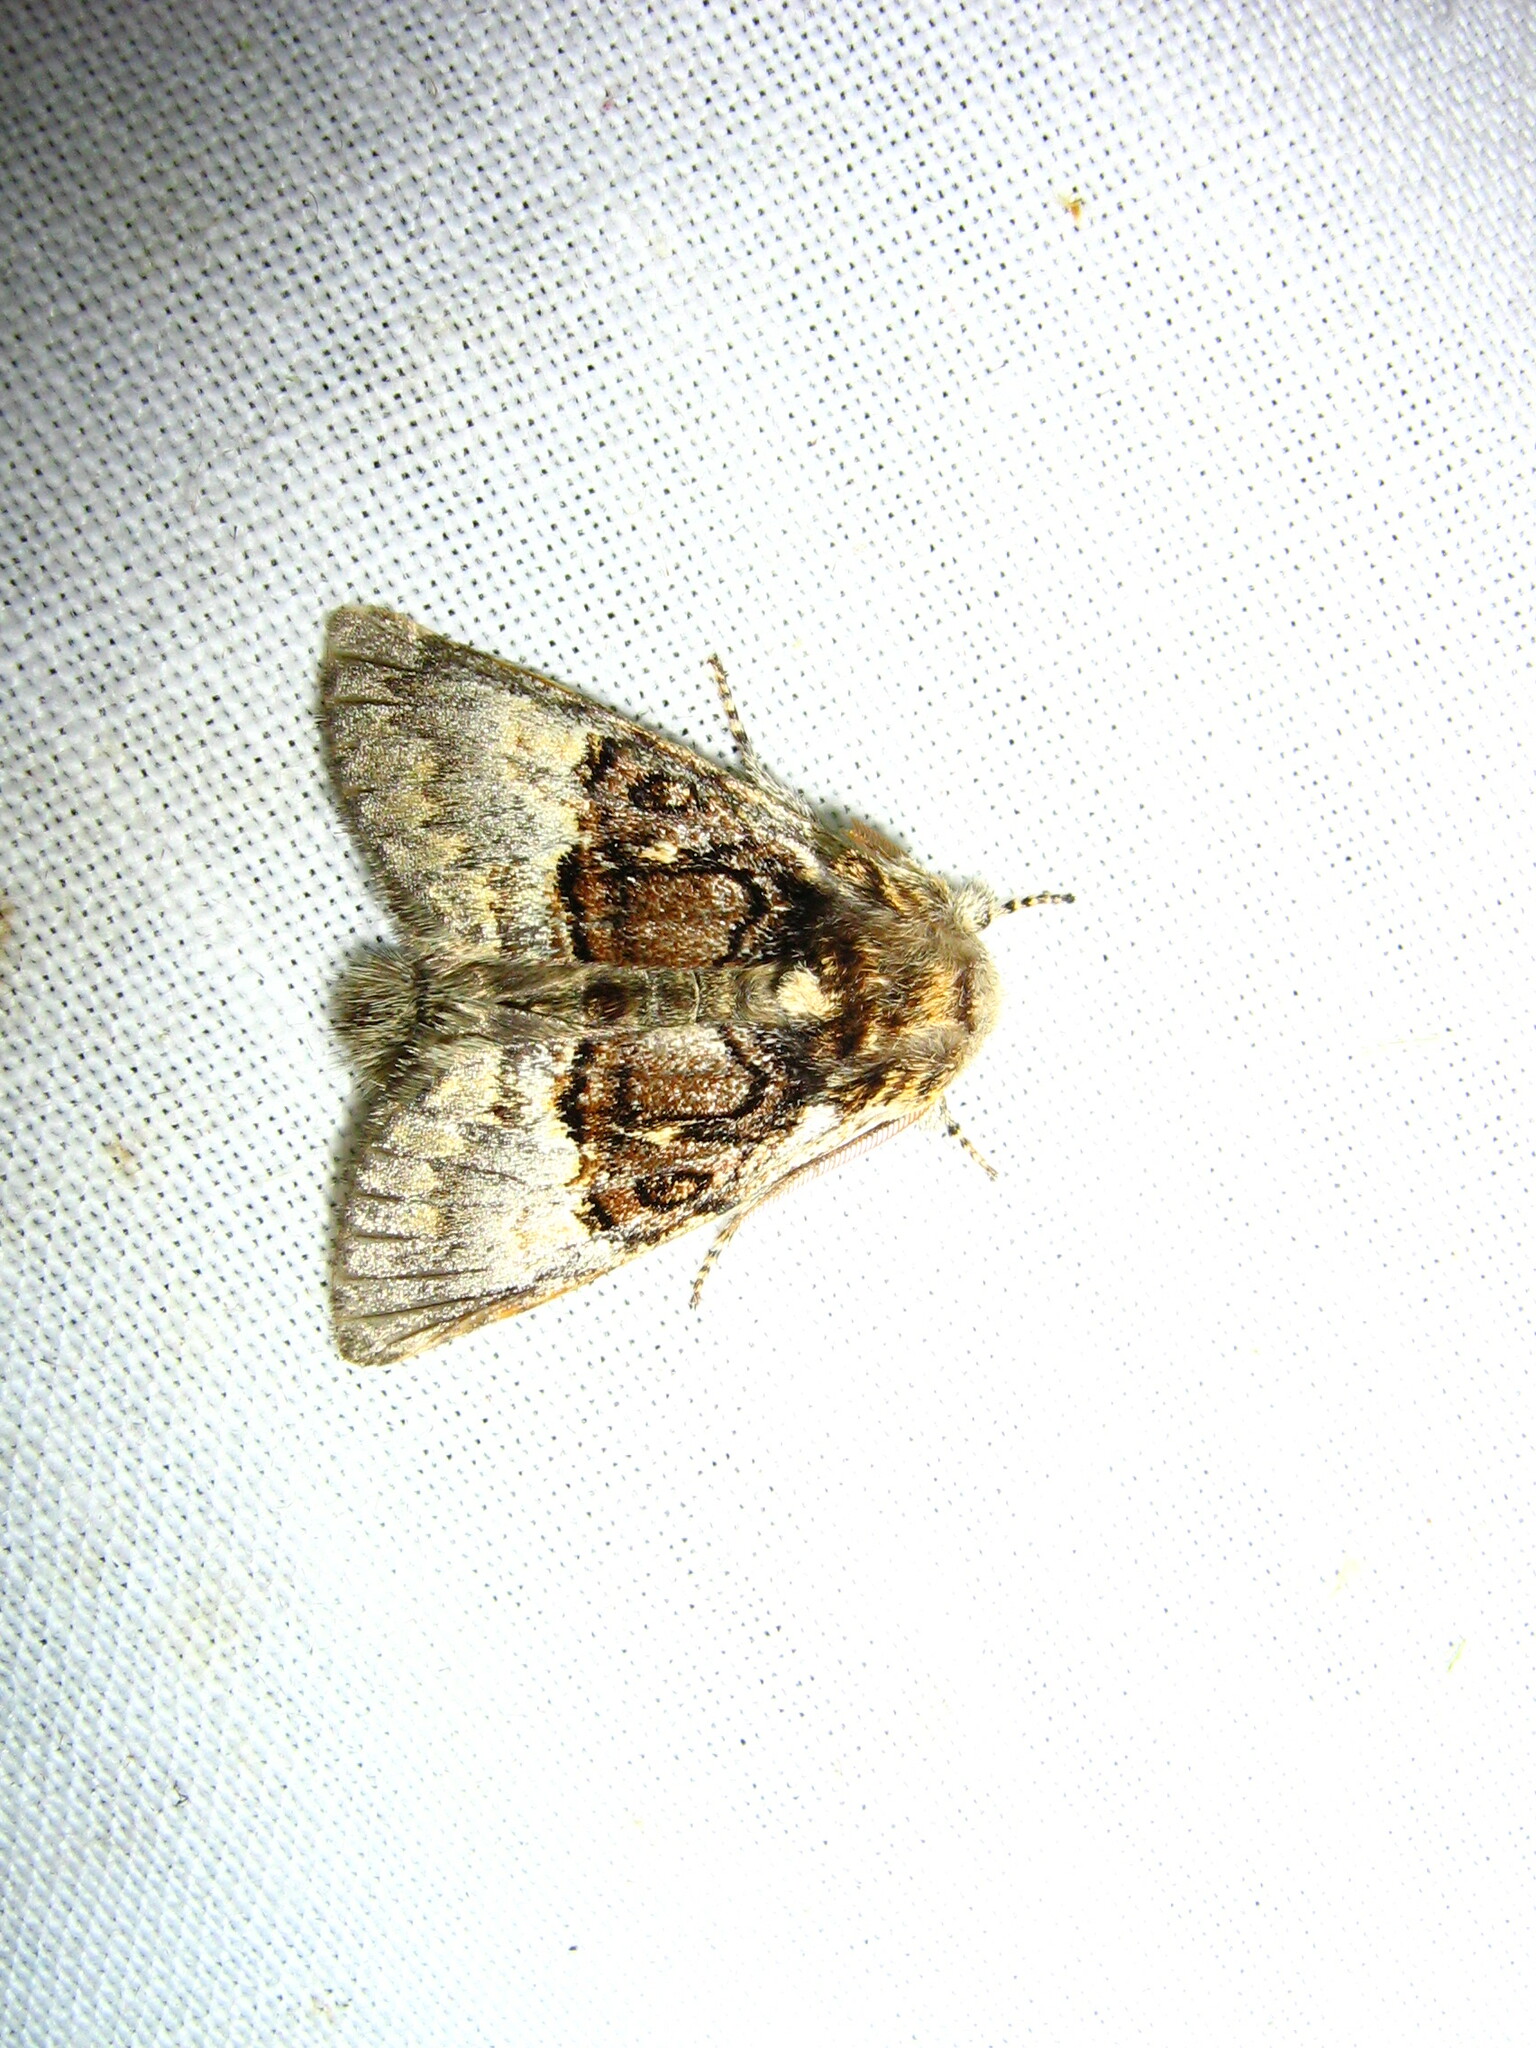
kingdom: Animalia
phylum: Arthropoda
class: Insecta
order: Lepidoptera
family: Noctuidae
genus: Colocasia
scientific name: Colocasia coryli
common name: Nut-tree tussock
